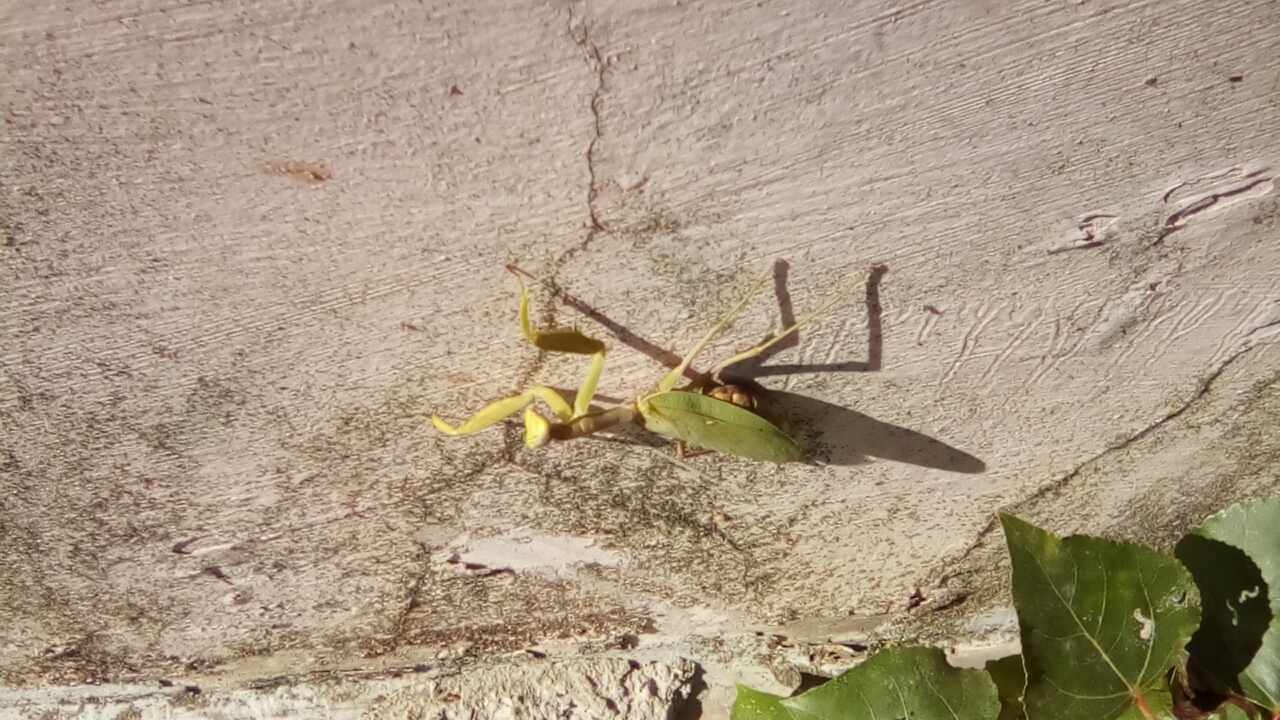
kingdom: Animalia
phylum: Arthropoda
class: Insecta
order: Mantodea
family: Mantidae
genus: Hierodula
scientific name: Hierodula transcaucasica
